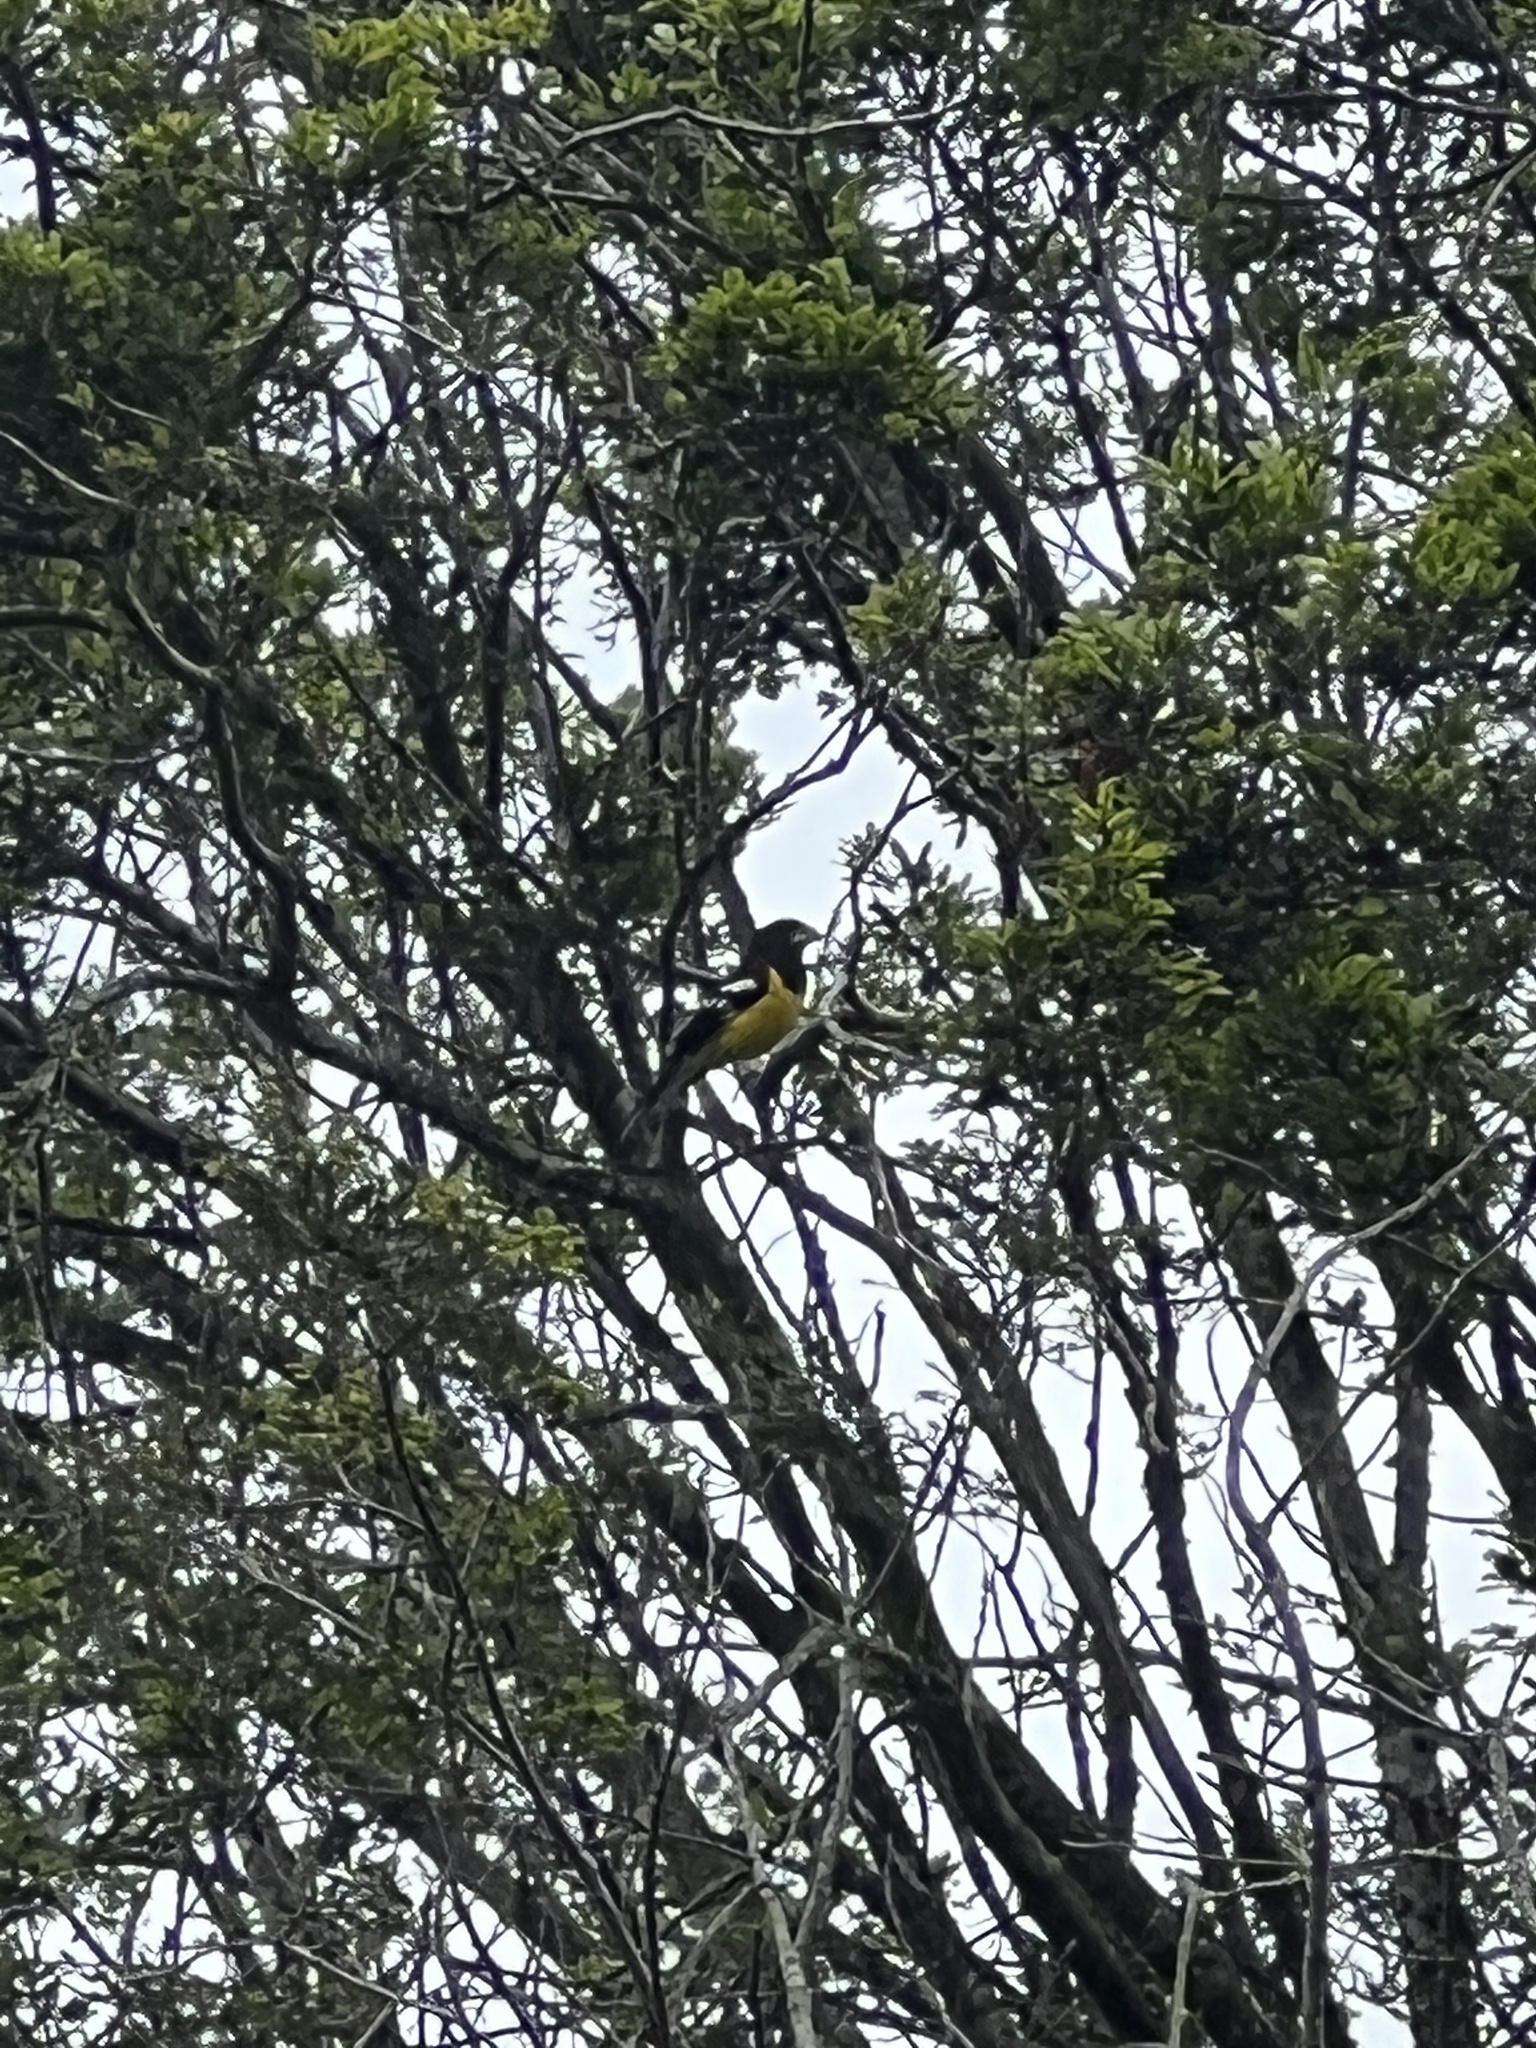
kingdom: Animalia
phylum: Chordata
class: Aves
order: Passeriformes
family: Cardinalidae
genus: Pheucticus
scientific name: Pheucticus aureoventris
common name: Black-backed grosbeak
